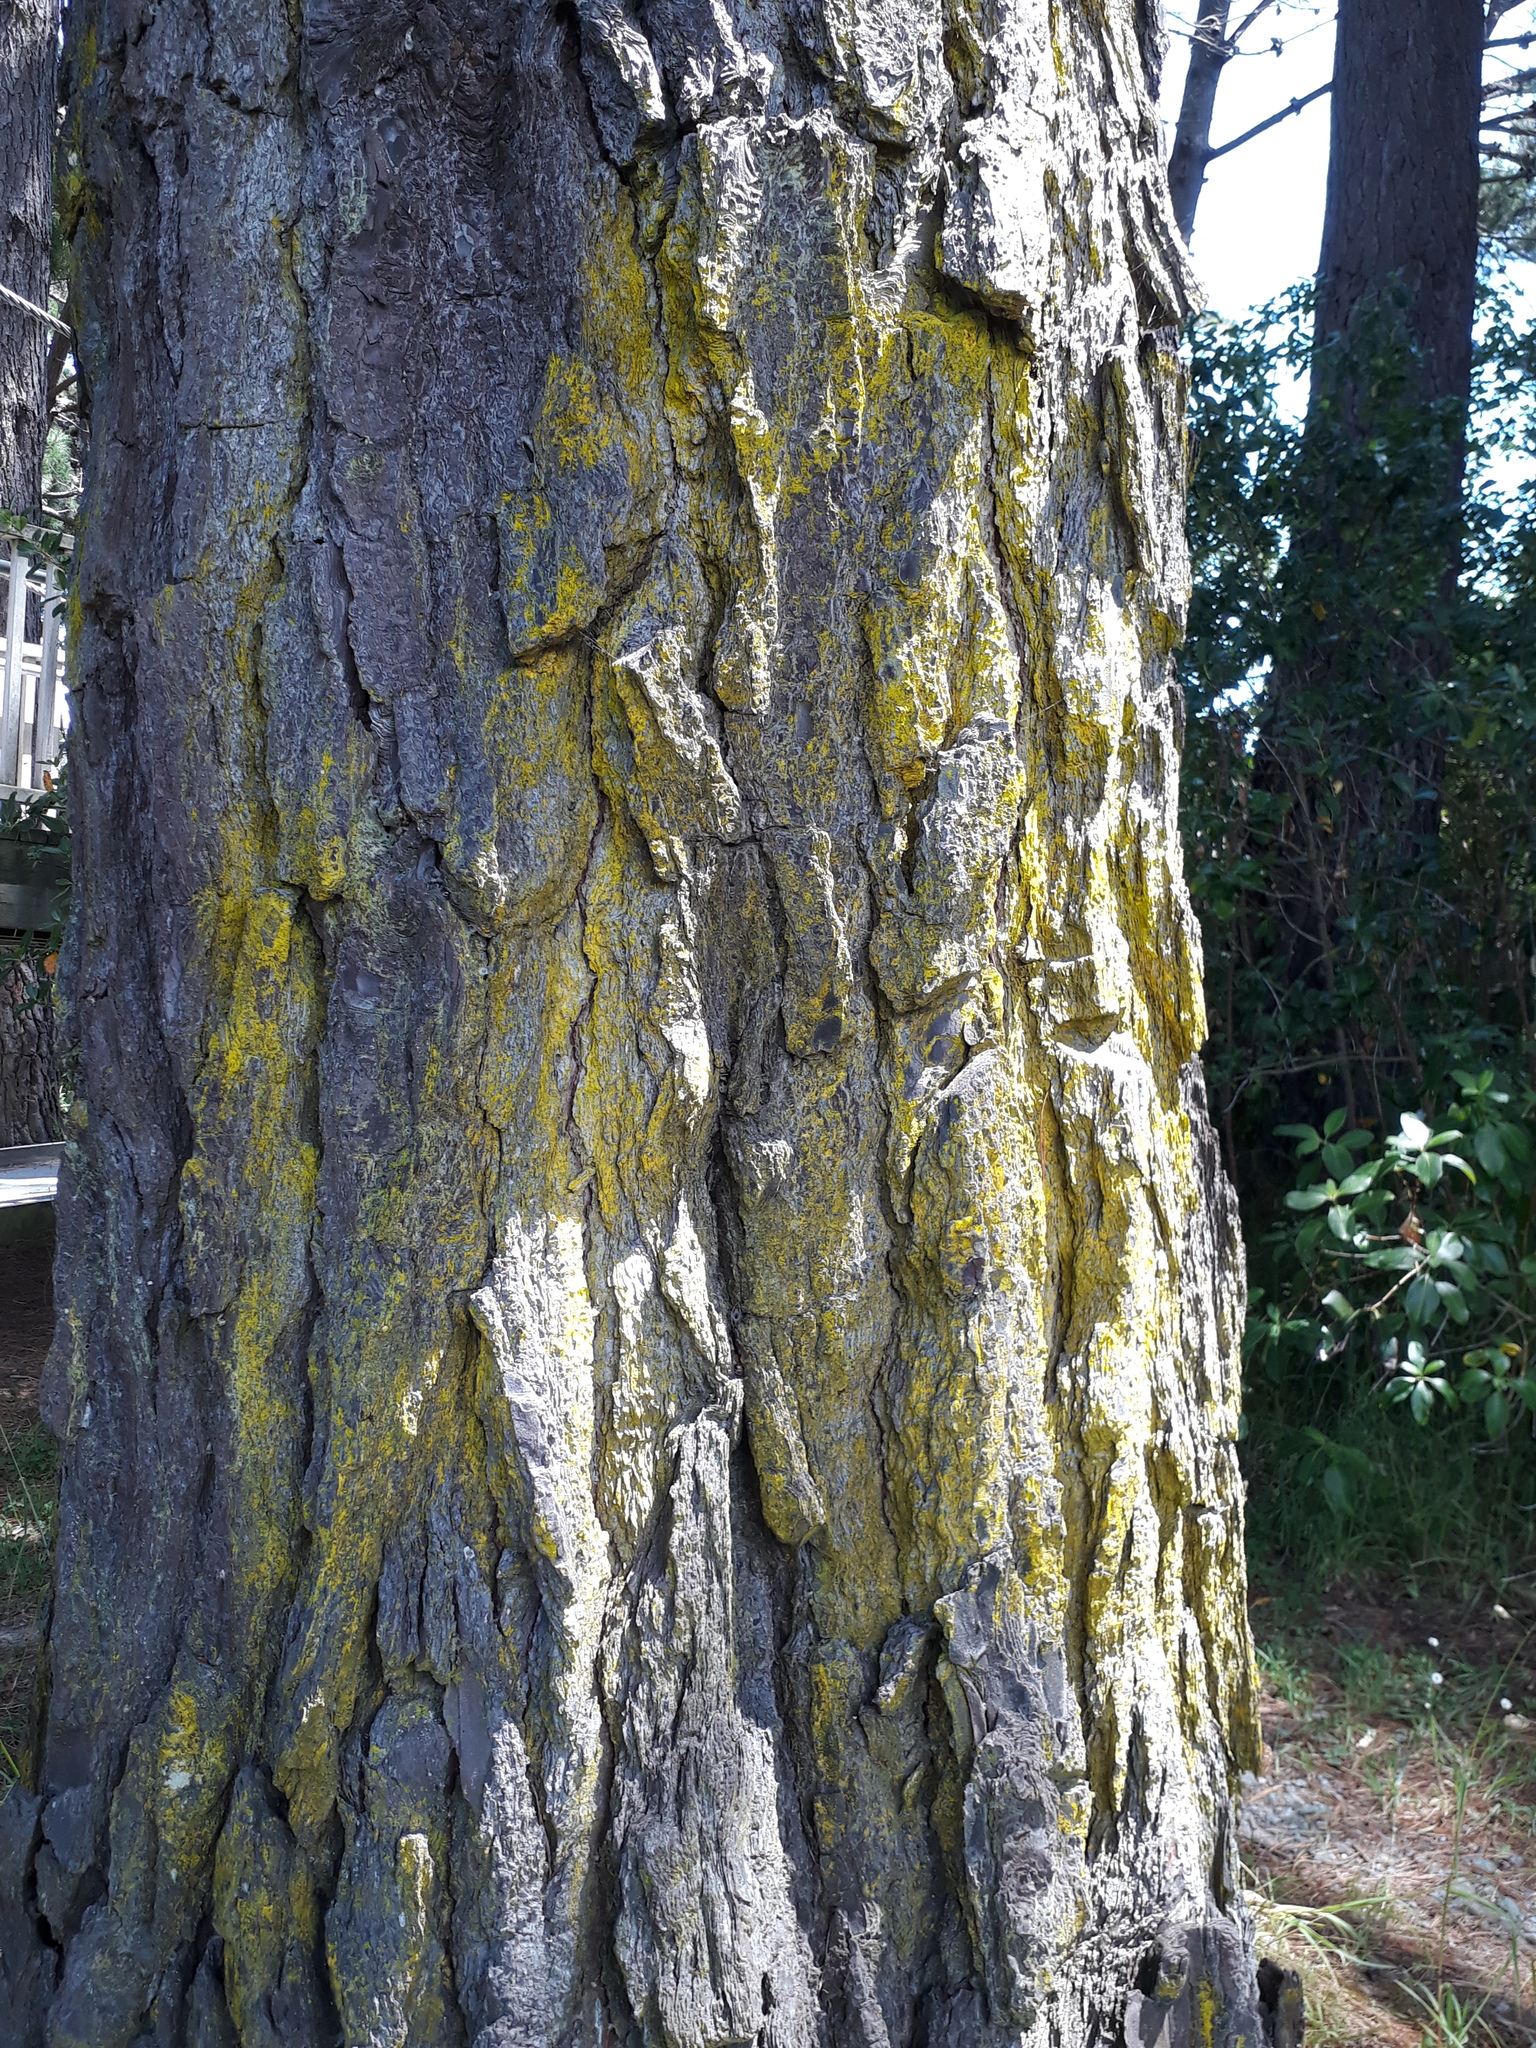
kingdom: Fungi
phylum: Ascomycota
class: Arthoniomycetes
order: Arthoniales
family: Chrysotrichaceae
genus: Chrysothrix
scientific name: Chrysothrix xanthina
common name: Common gold-dust
